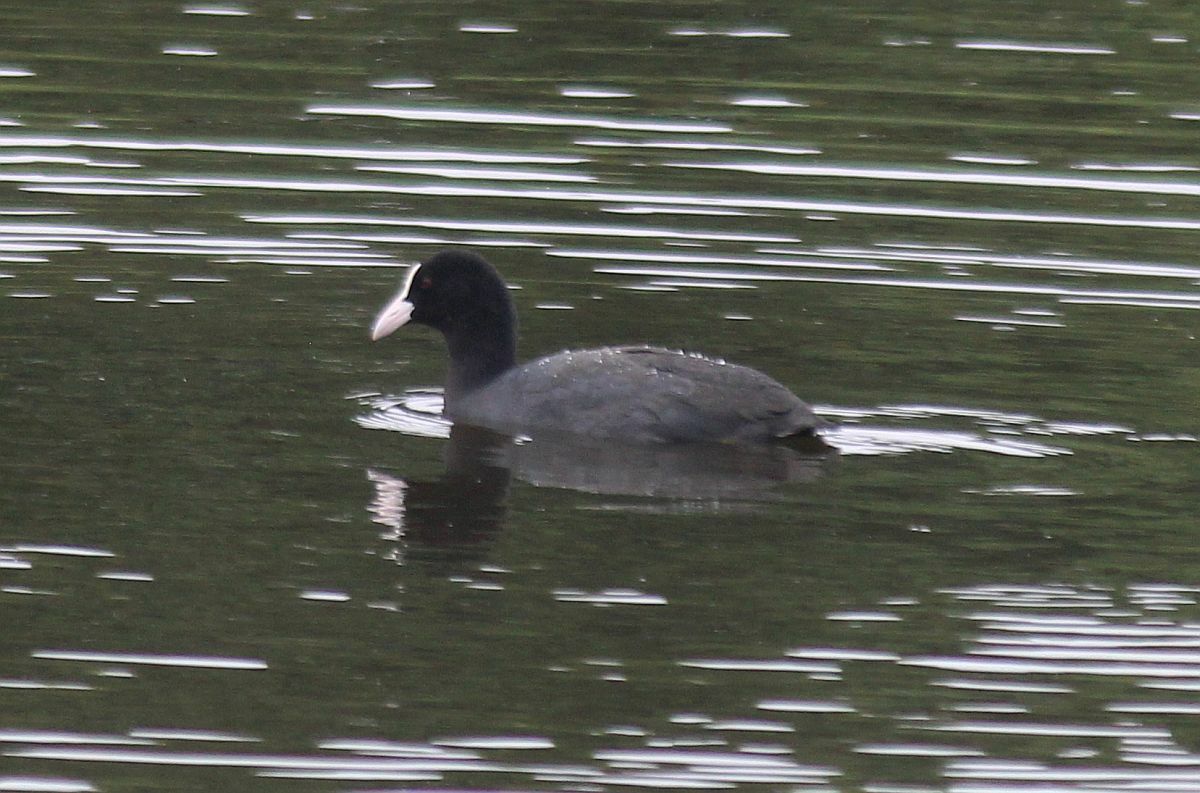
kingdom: Animalia
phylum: Chordata
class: Aves
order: Gruiformes
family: Rallidae
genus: Fulica
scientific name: Fulica atra
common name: Eurasian coot
